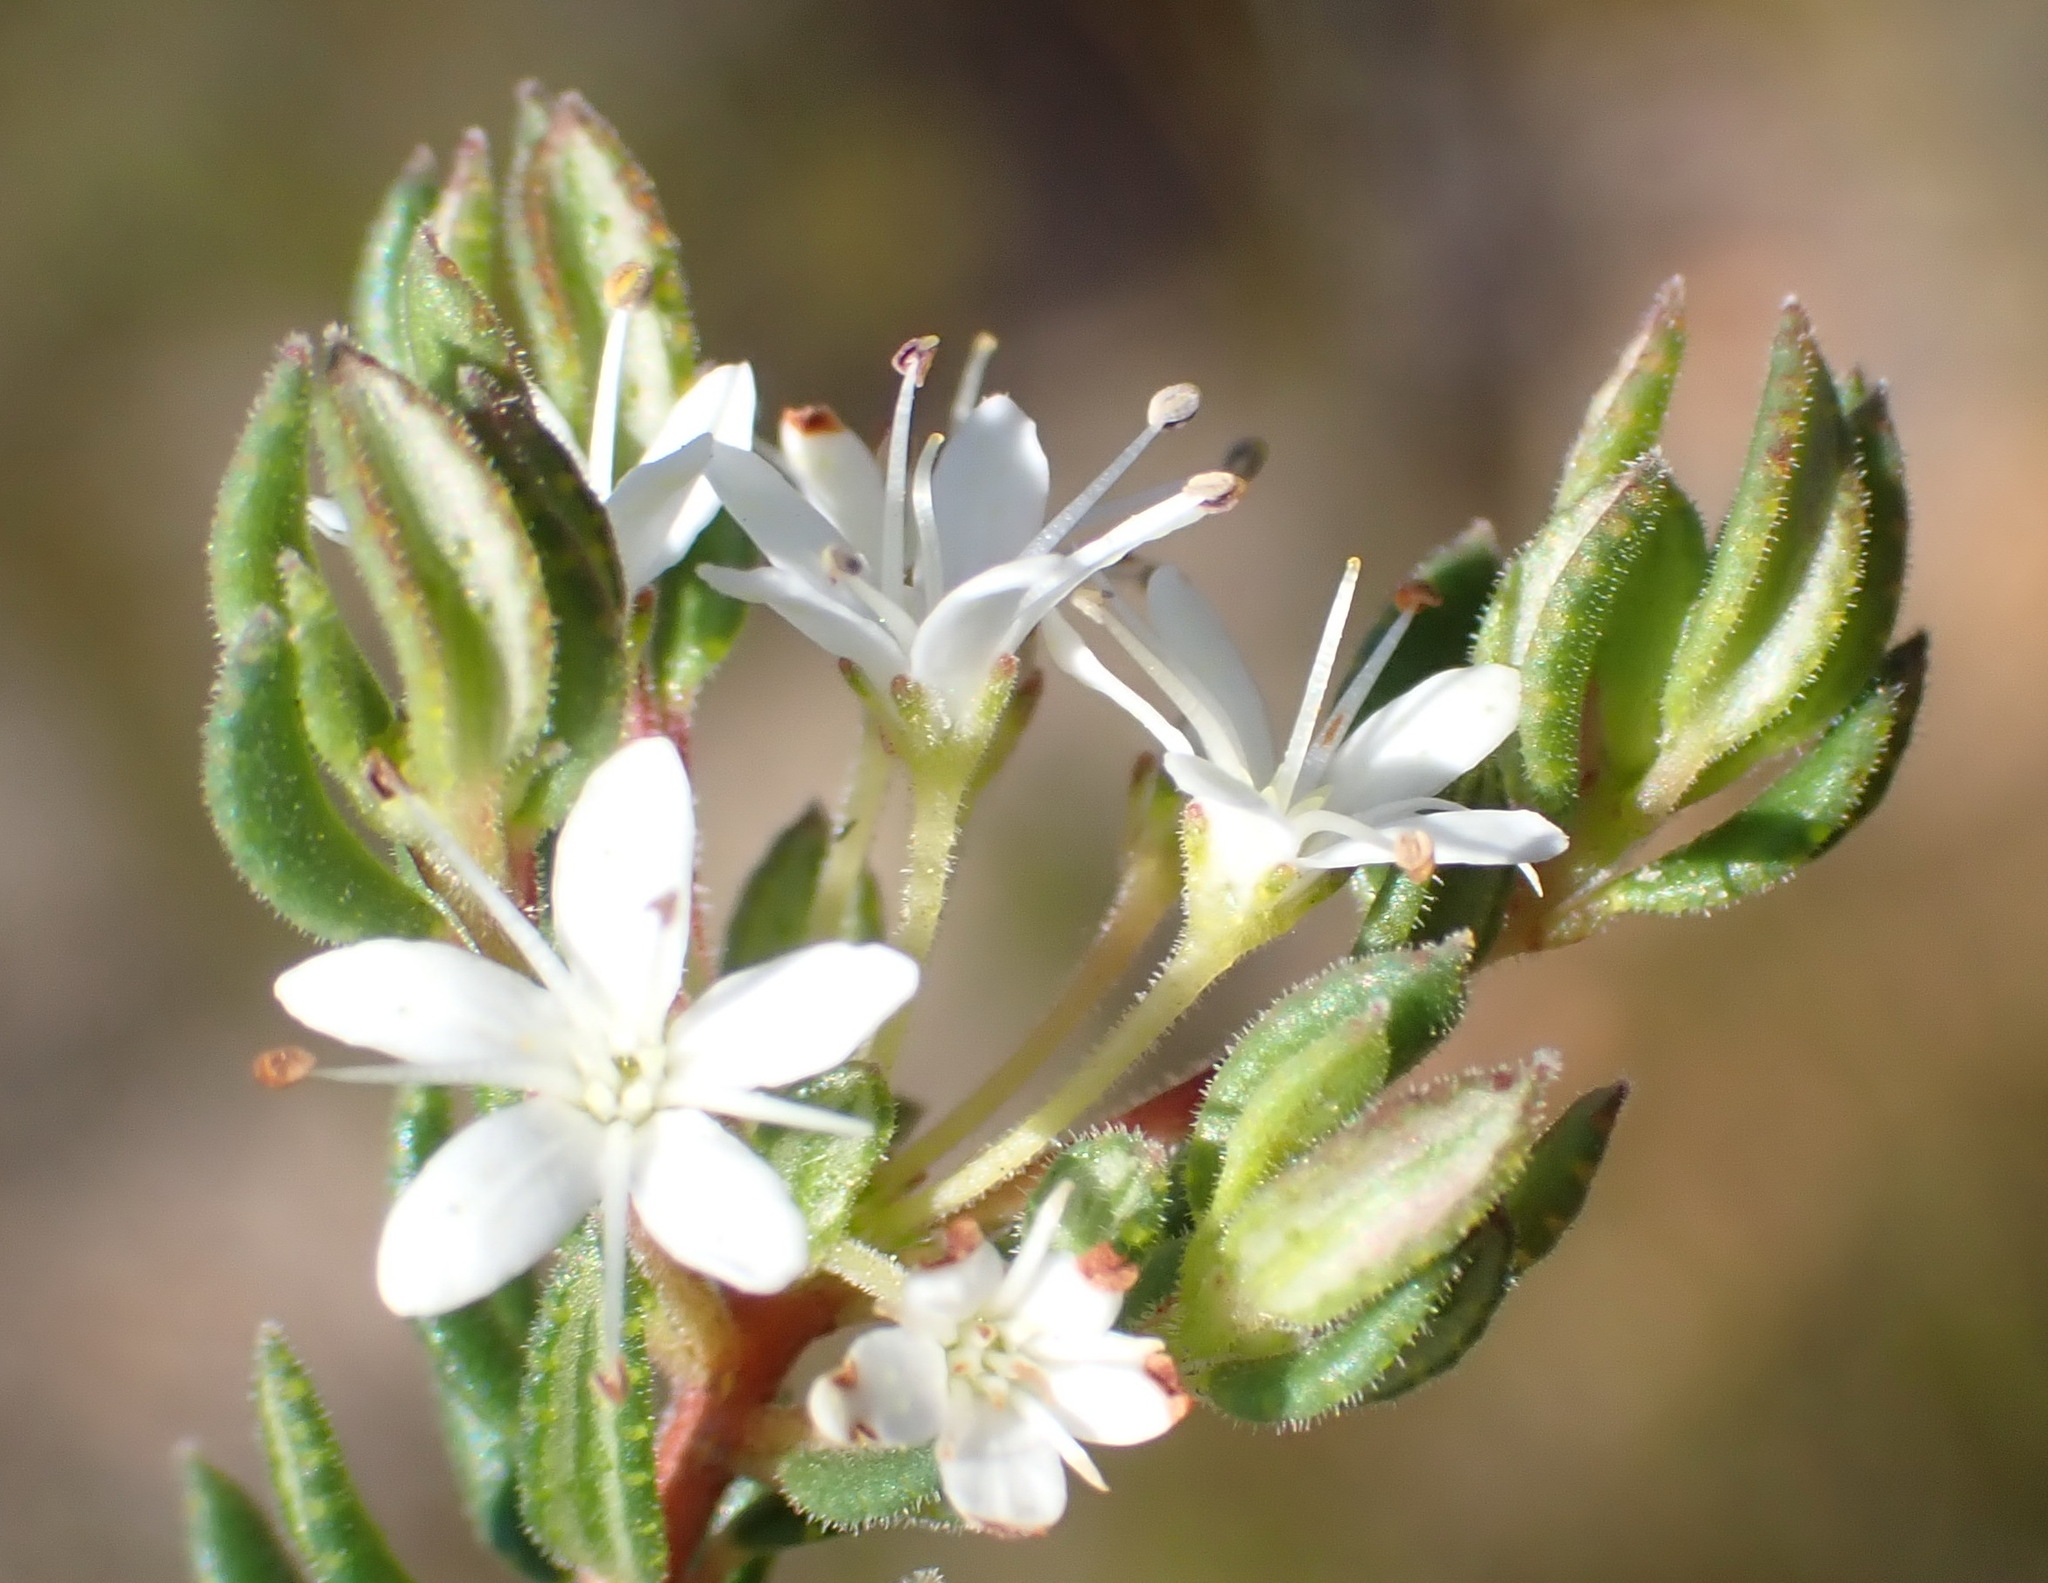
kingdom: Plantae
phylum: Tracheophyta
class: Magnoliopsida
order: Sapindales
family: Rutaceae
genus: Agathosma
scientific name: Agathosma mundtii
